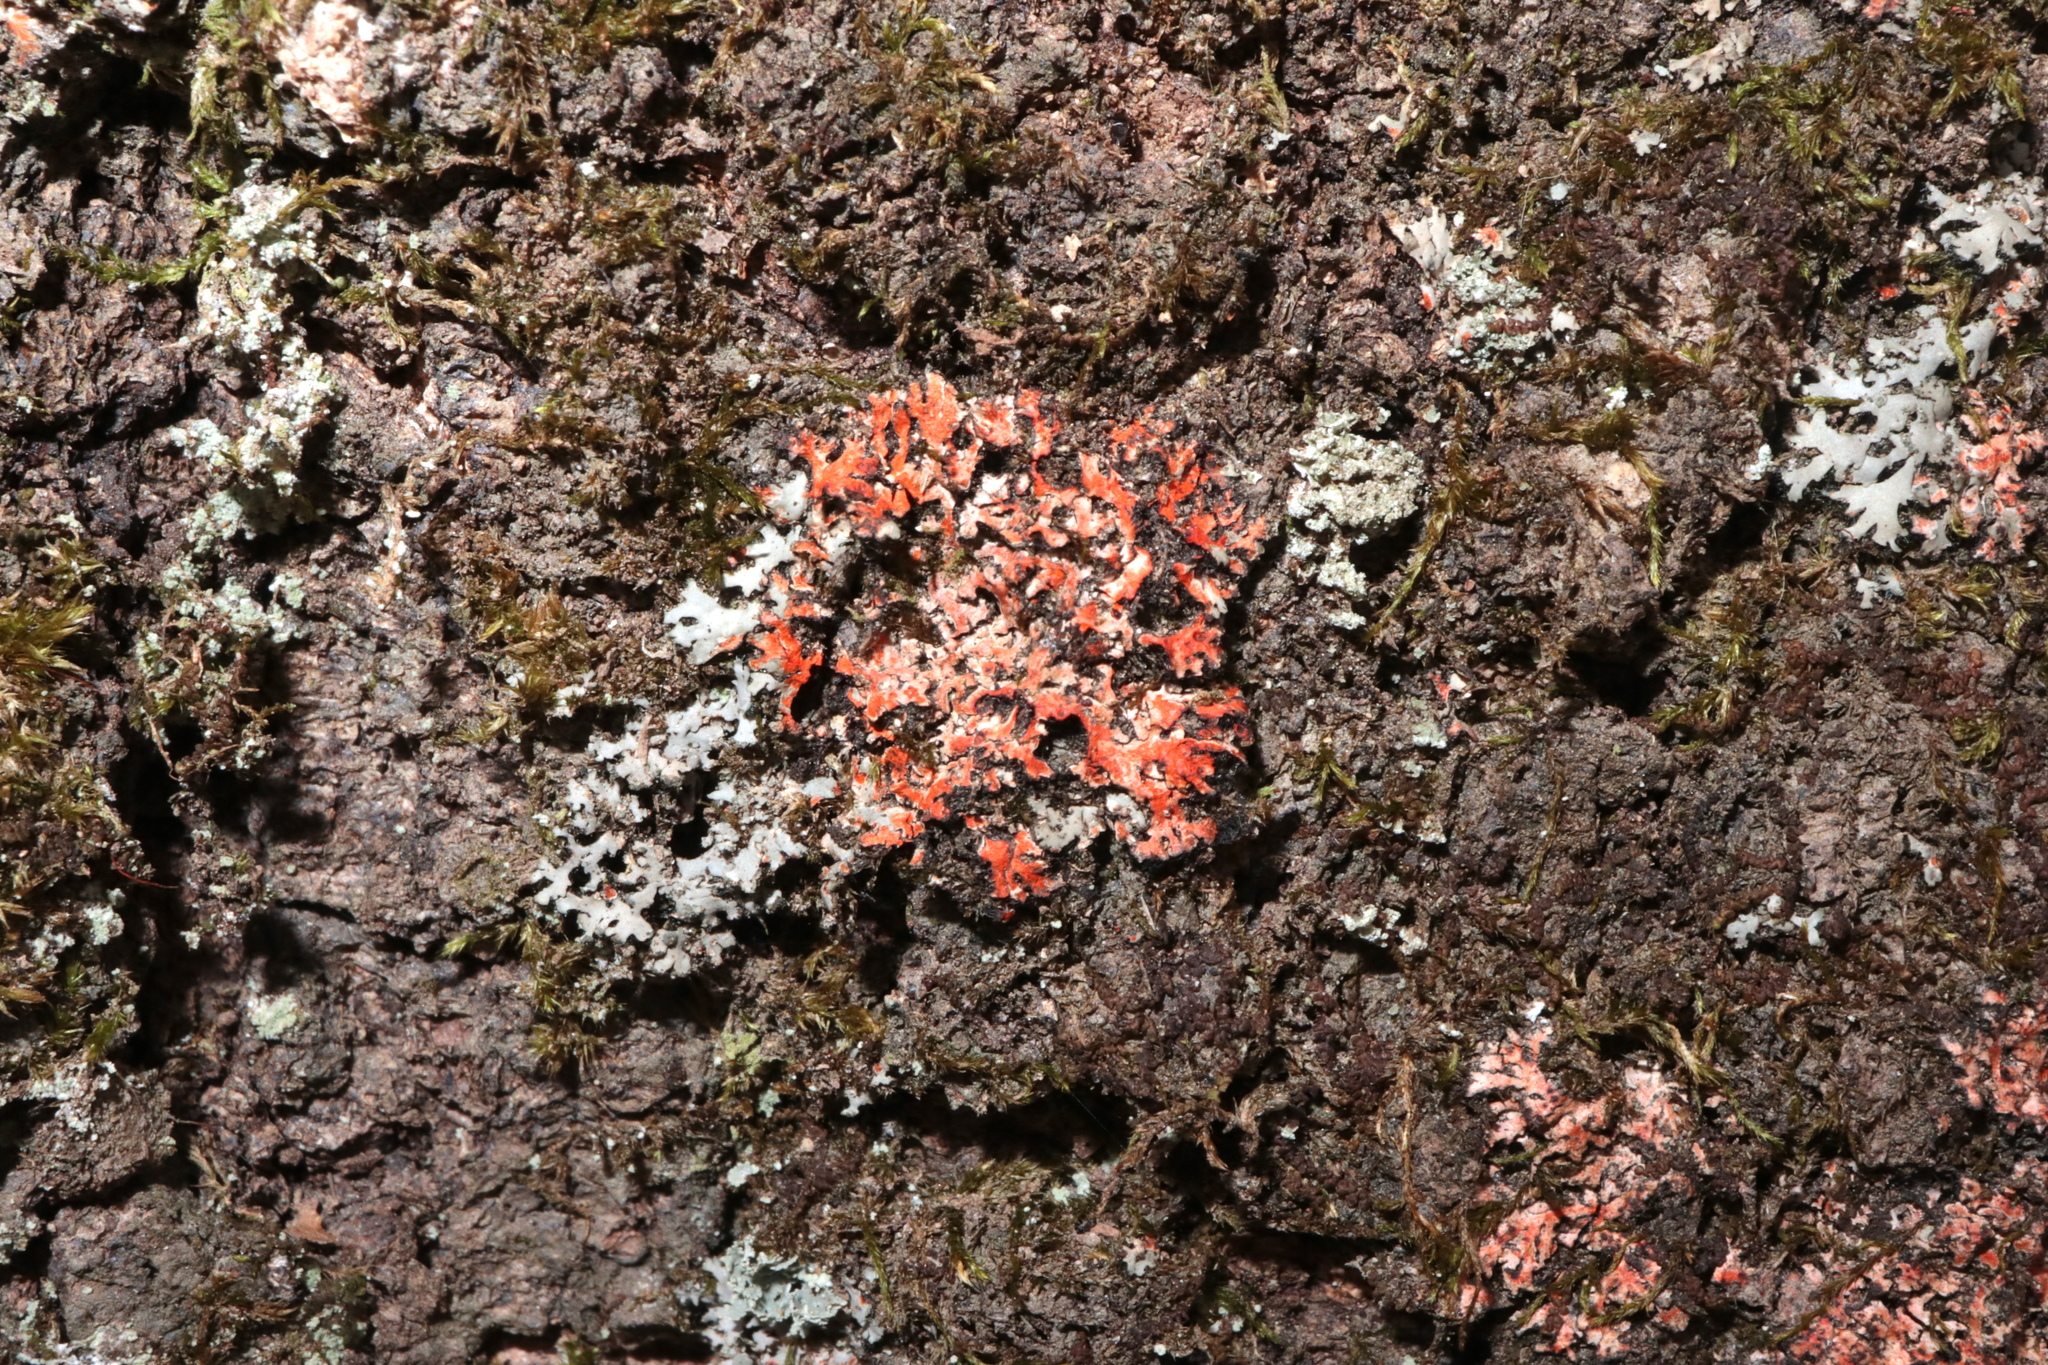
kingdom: Fungi
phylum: Ascomycota
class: Lecanoromycetes
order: Caliciales
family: Physciaceae
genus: Phaeophyscia
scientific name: Phaeophyscia rubropulchra
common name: Orange-cored shadow lichen
